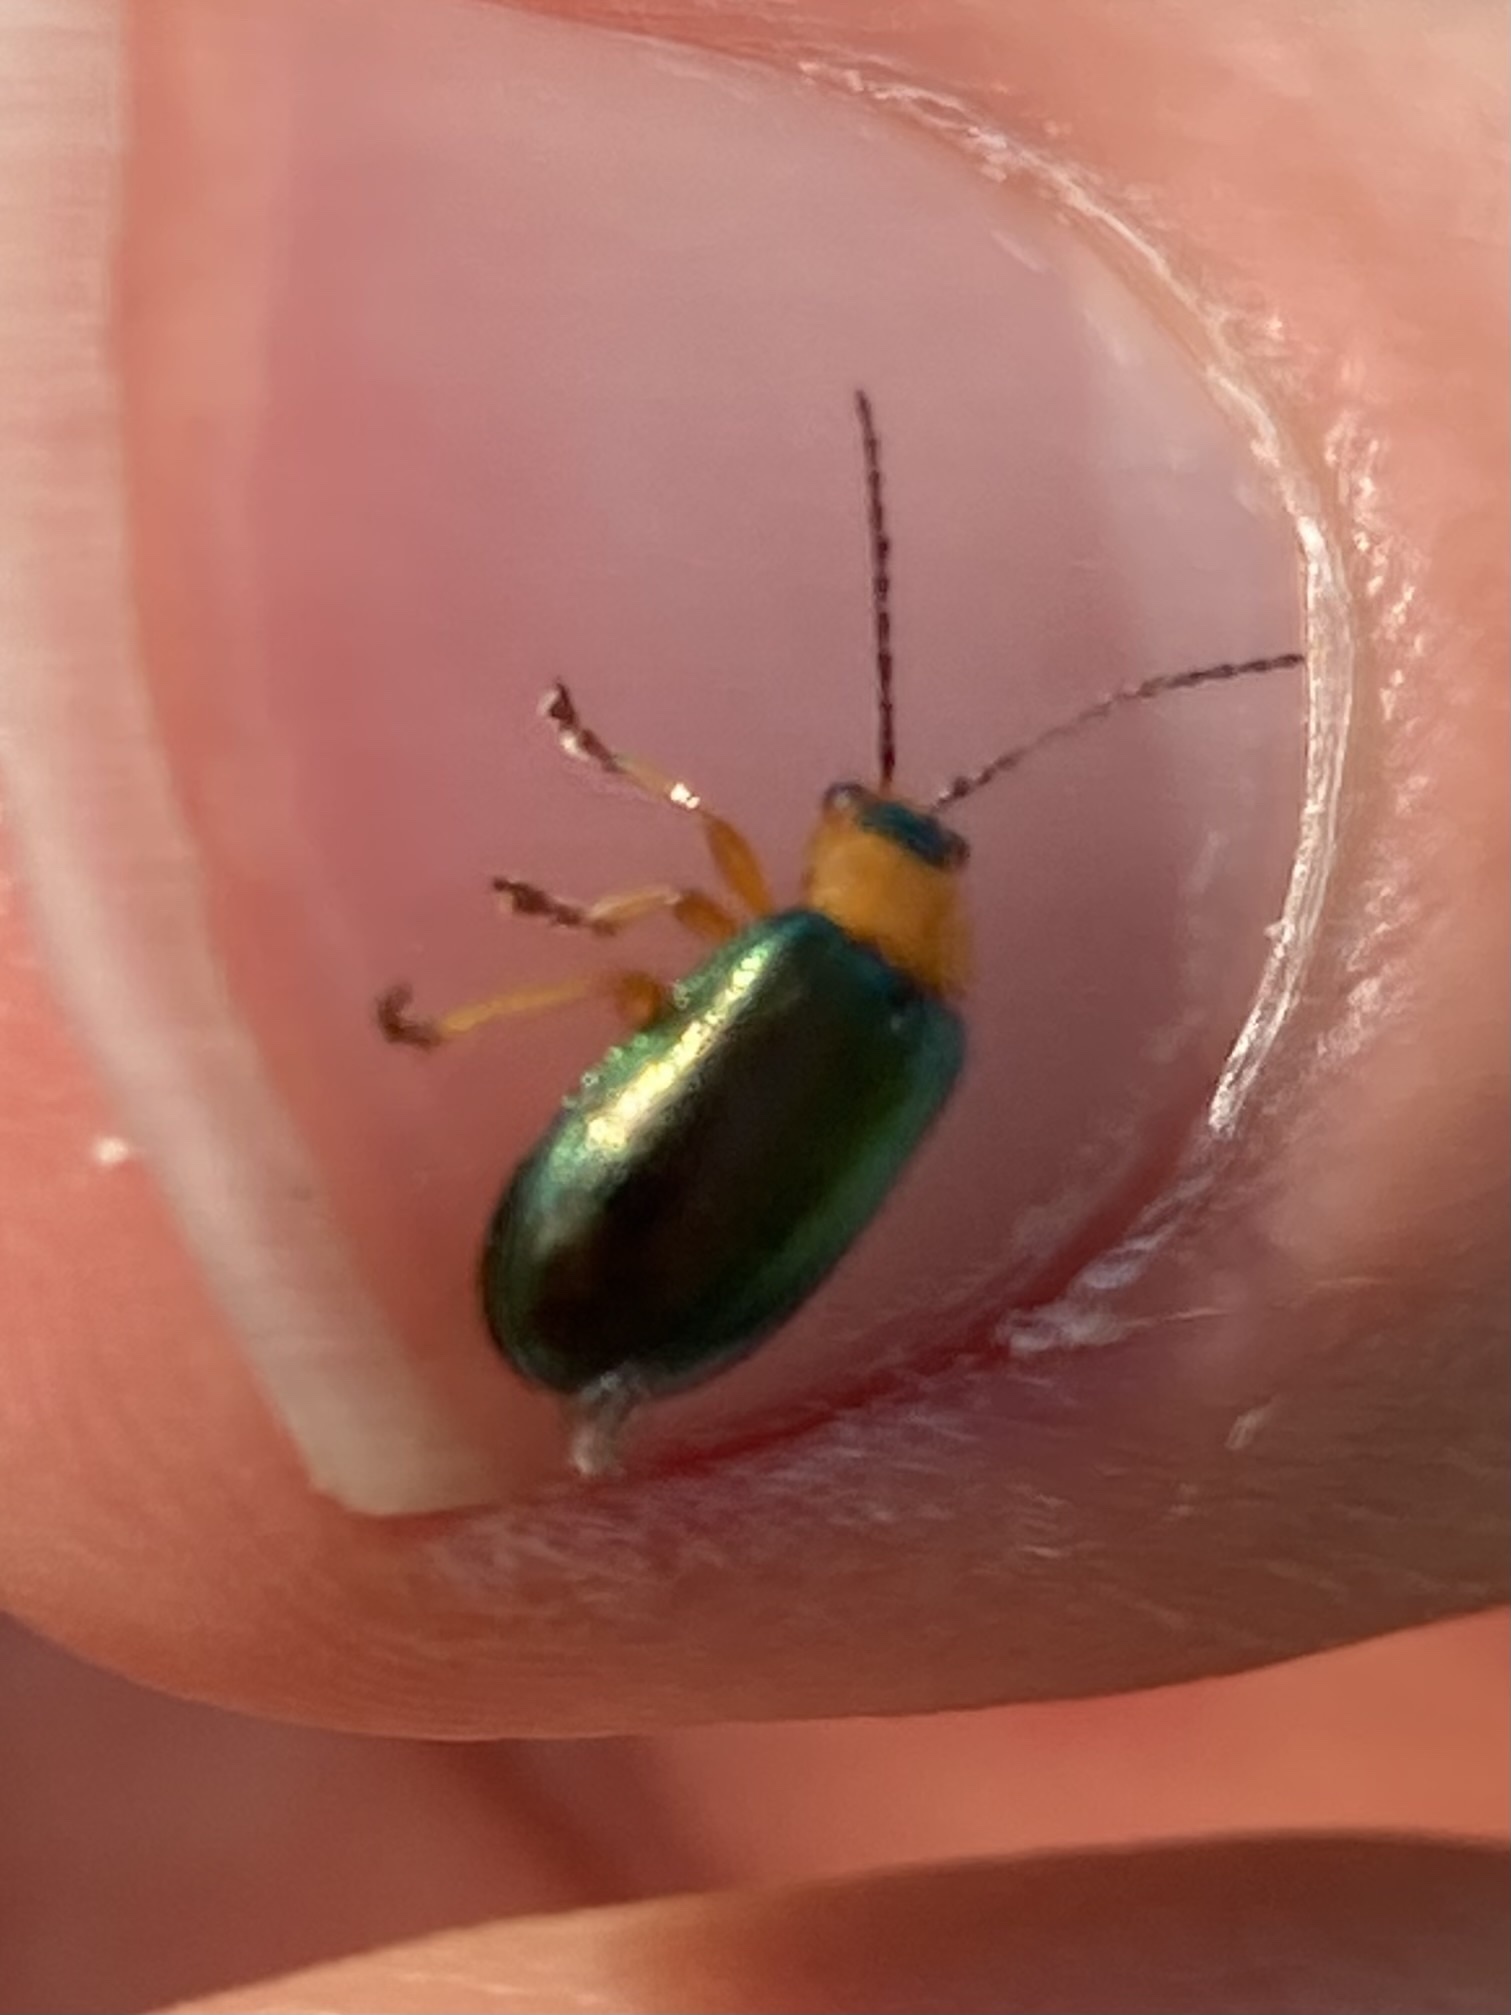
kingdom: Animalia
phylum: Arthropoda
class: Insecta
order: Coleoptera
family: Chrysomelidae
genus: Sermylassa
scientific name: Sermylassa halensis
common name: Leaf beetle
